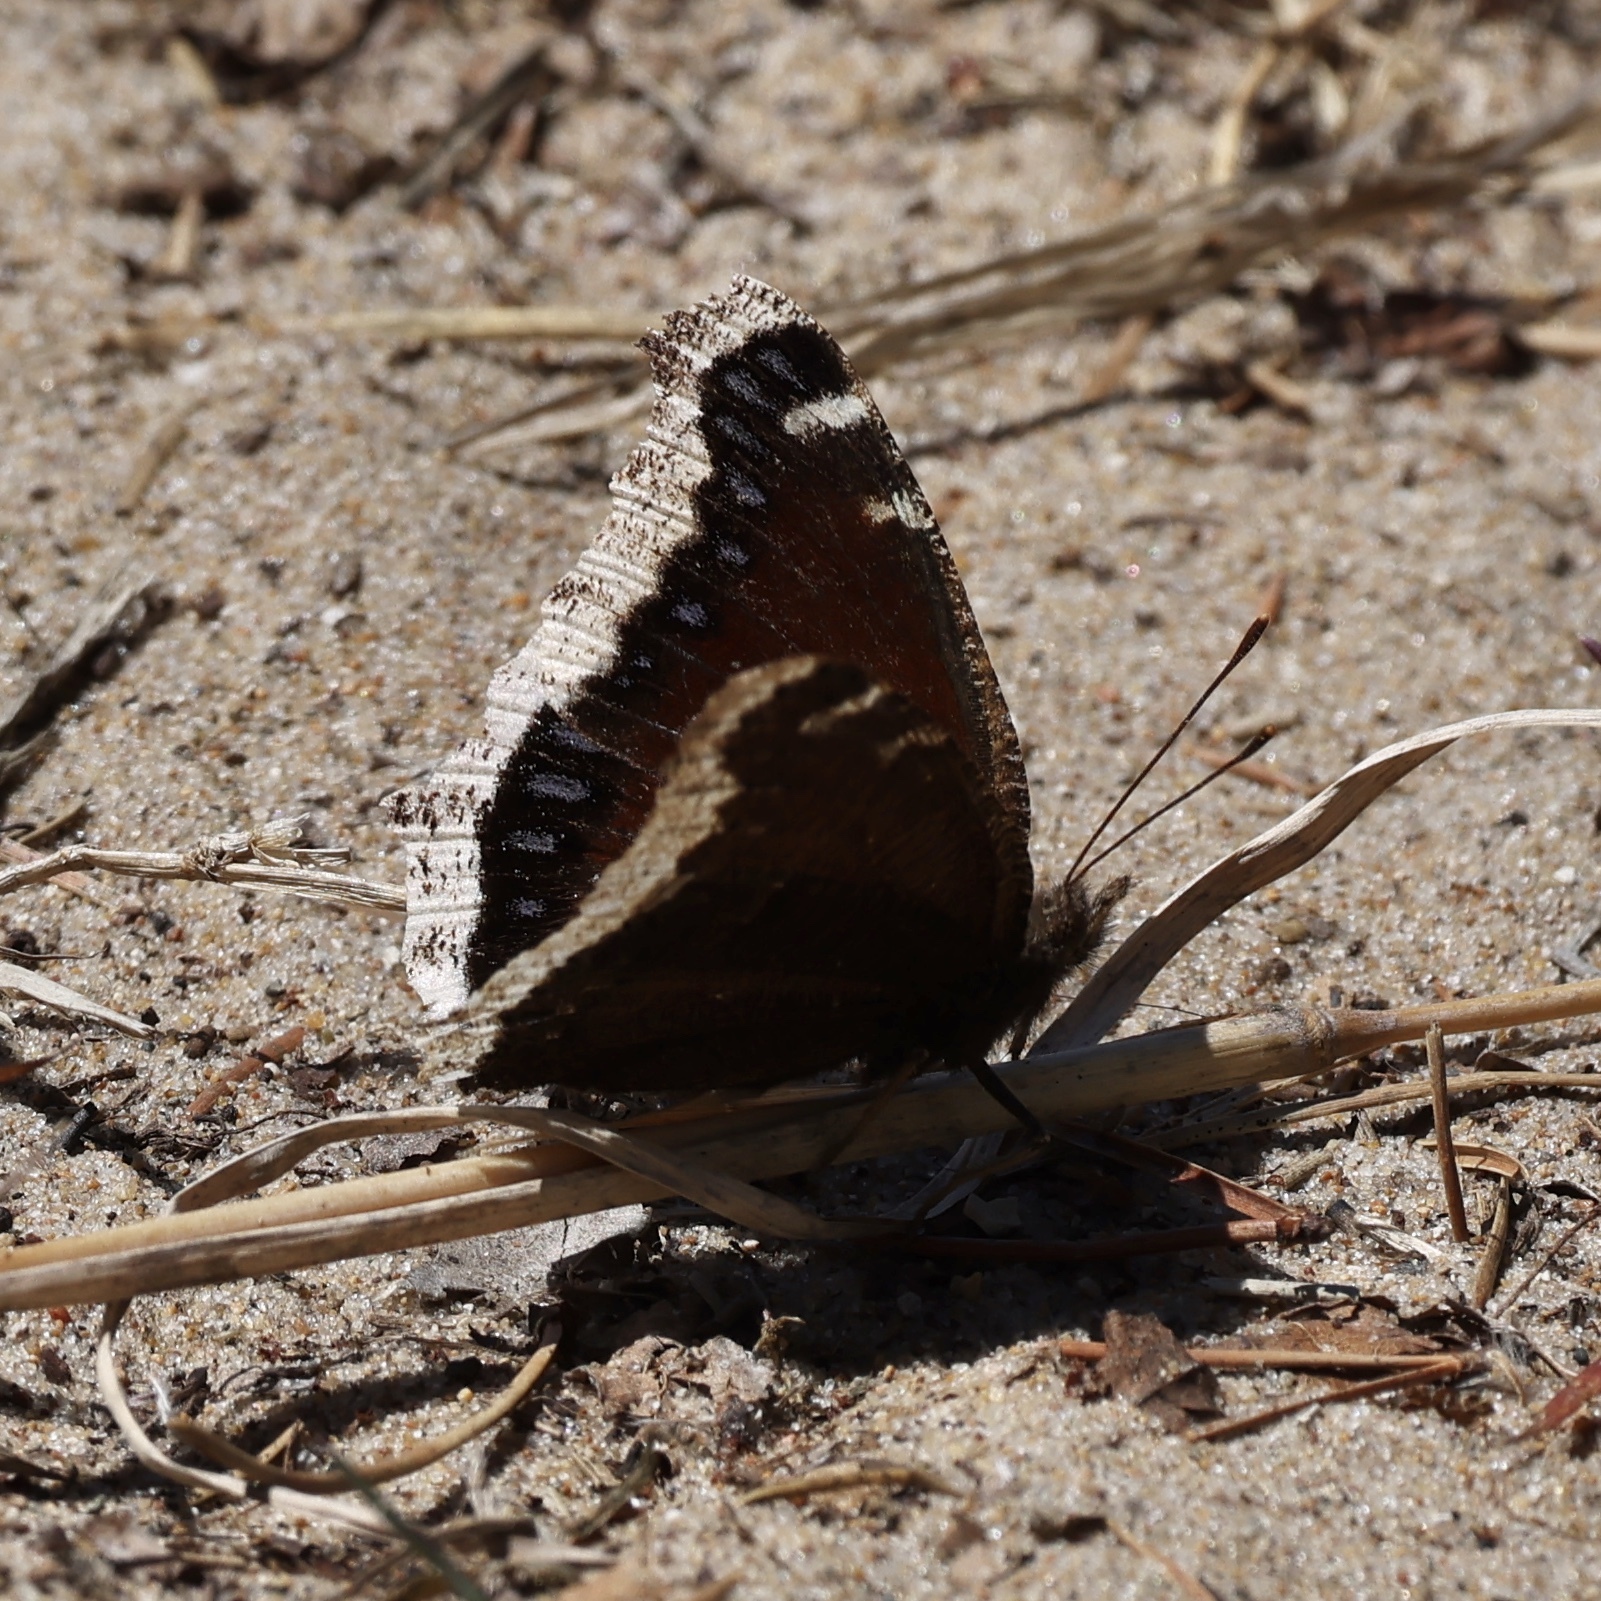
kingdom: Animalia
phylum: Arthropoda
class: Insecta
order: Lepidoptera
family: Nymphalidae
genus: Nymphalis
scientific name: Nymphalis antiopa
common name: Camberwell beauty
